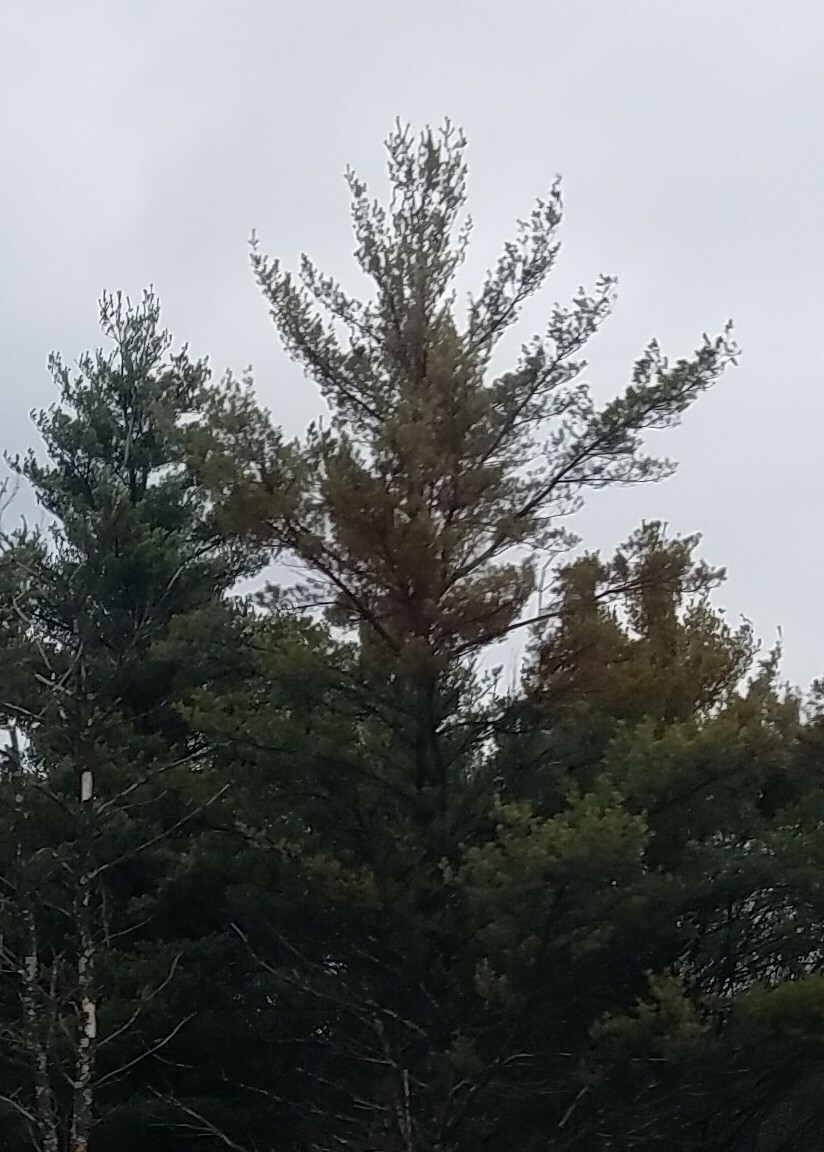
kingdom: Plantae
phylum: Tracheophyta
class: Pinopsida
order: Pinales
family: Pinaceae
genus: Pinus
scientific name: Pinus strobus
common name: Weymouth pine
